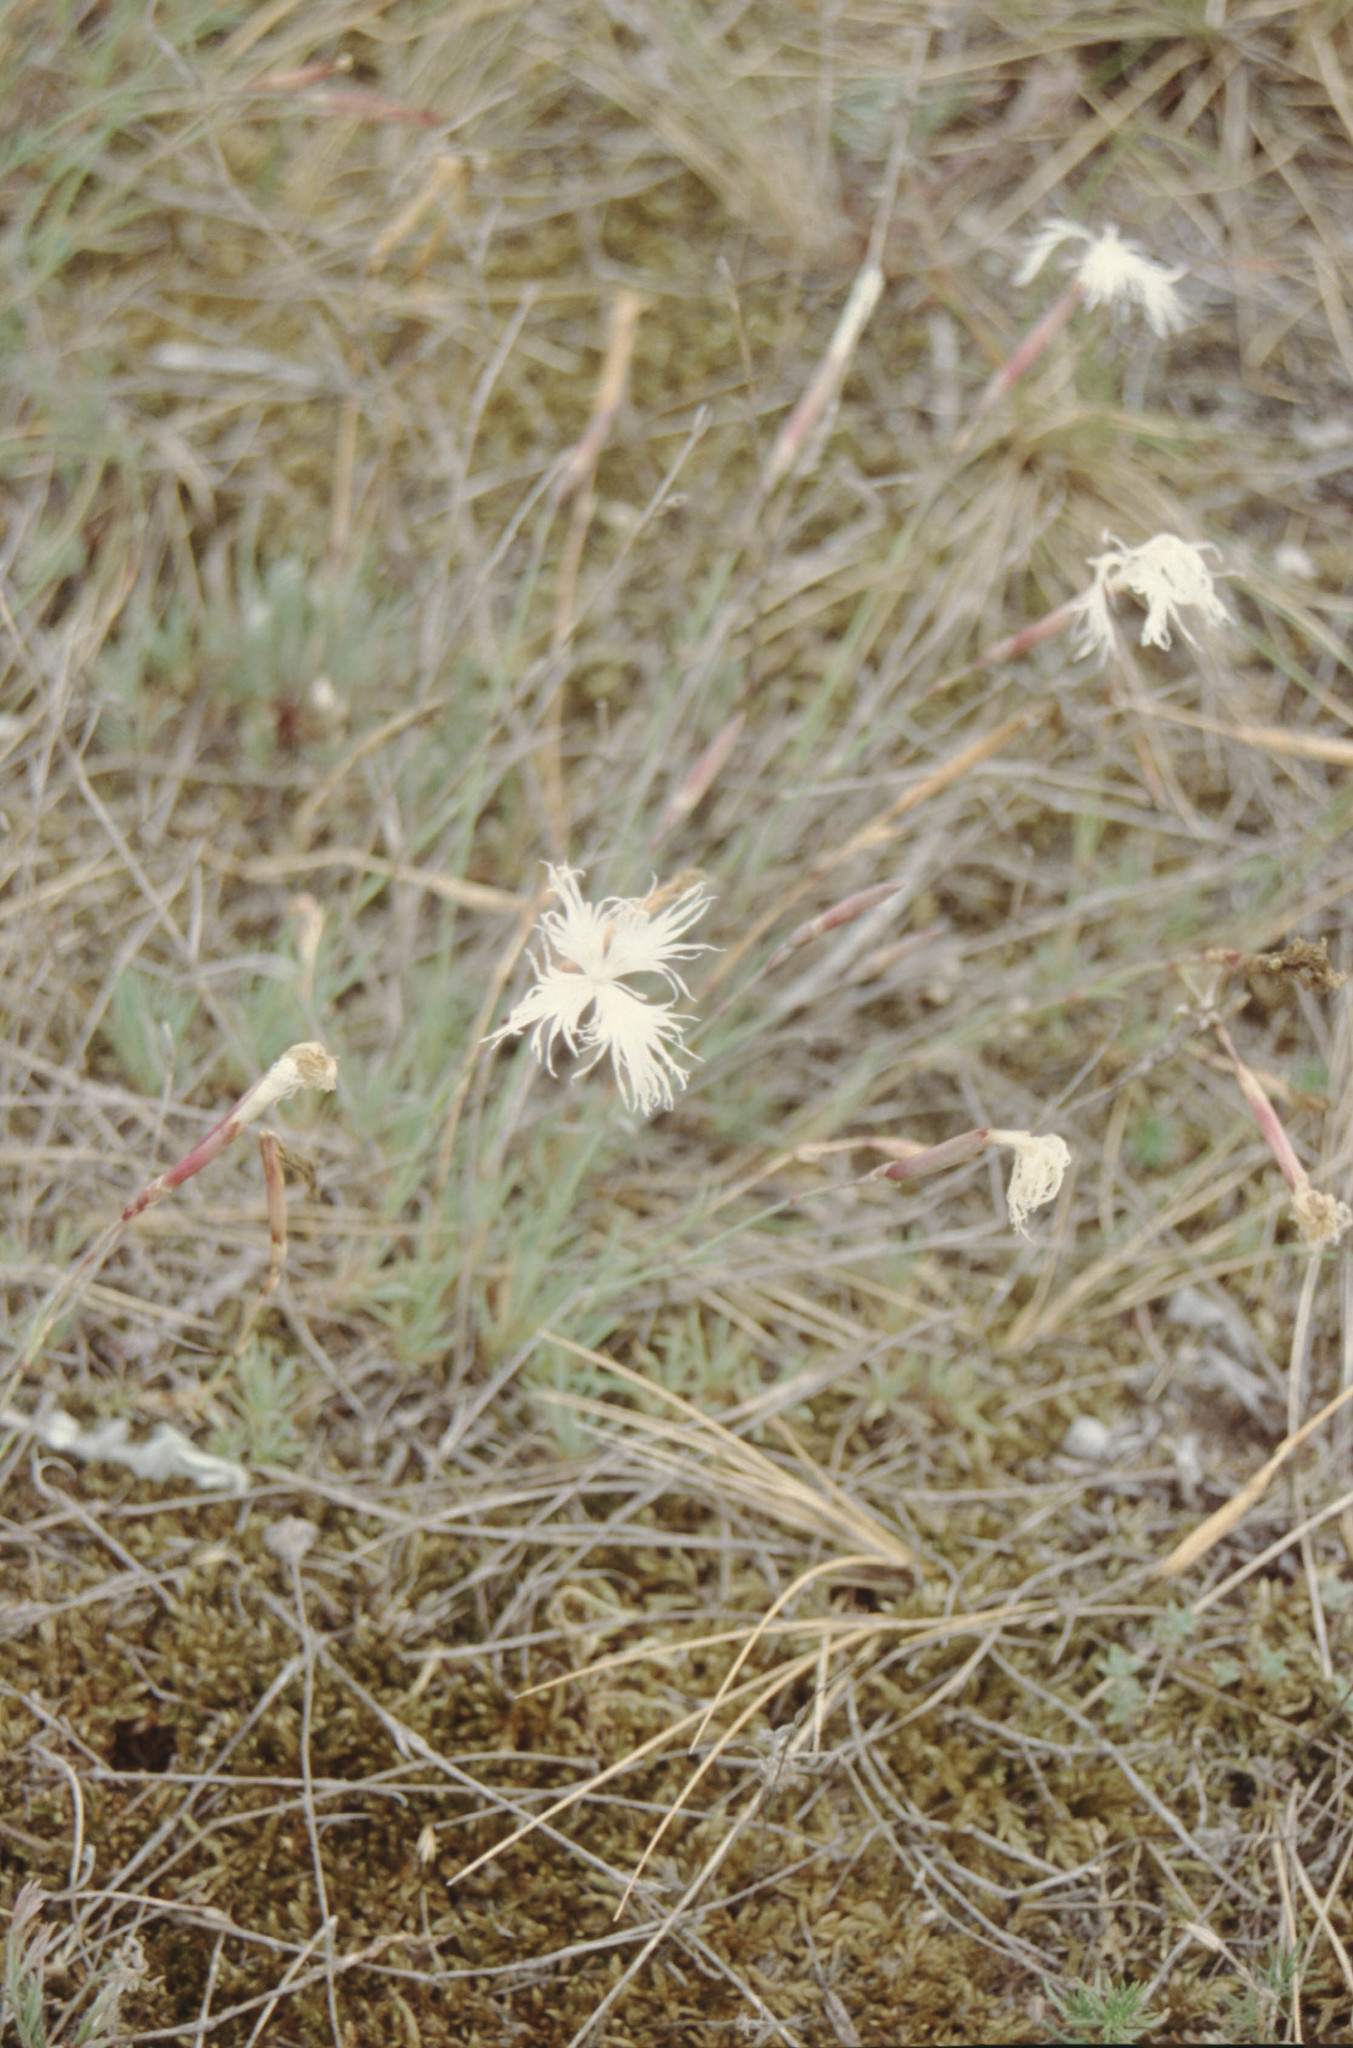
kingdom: Plantae
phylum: Tracheophyta
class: Magnoliopsida
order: Caryophyllales
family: Caryophyllaceae
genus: Dianthus
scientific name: Dianthus arenarius
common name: Stone pink
